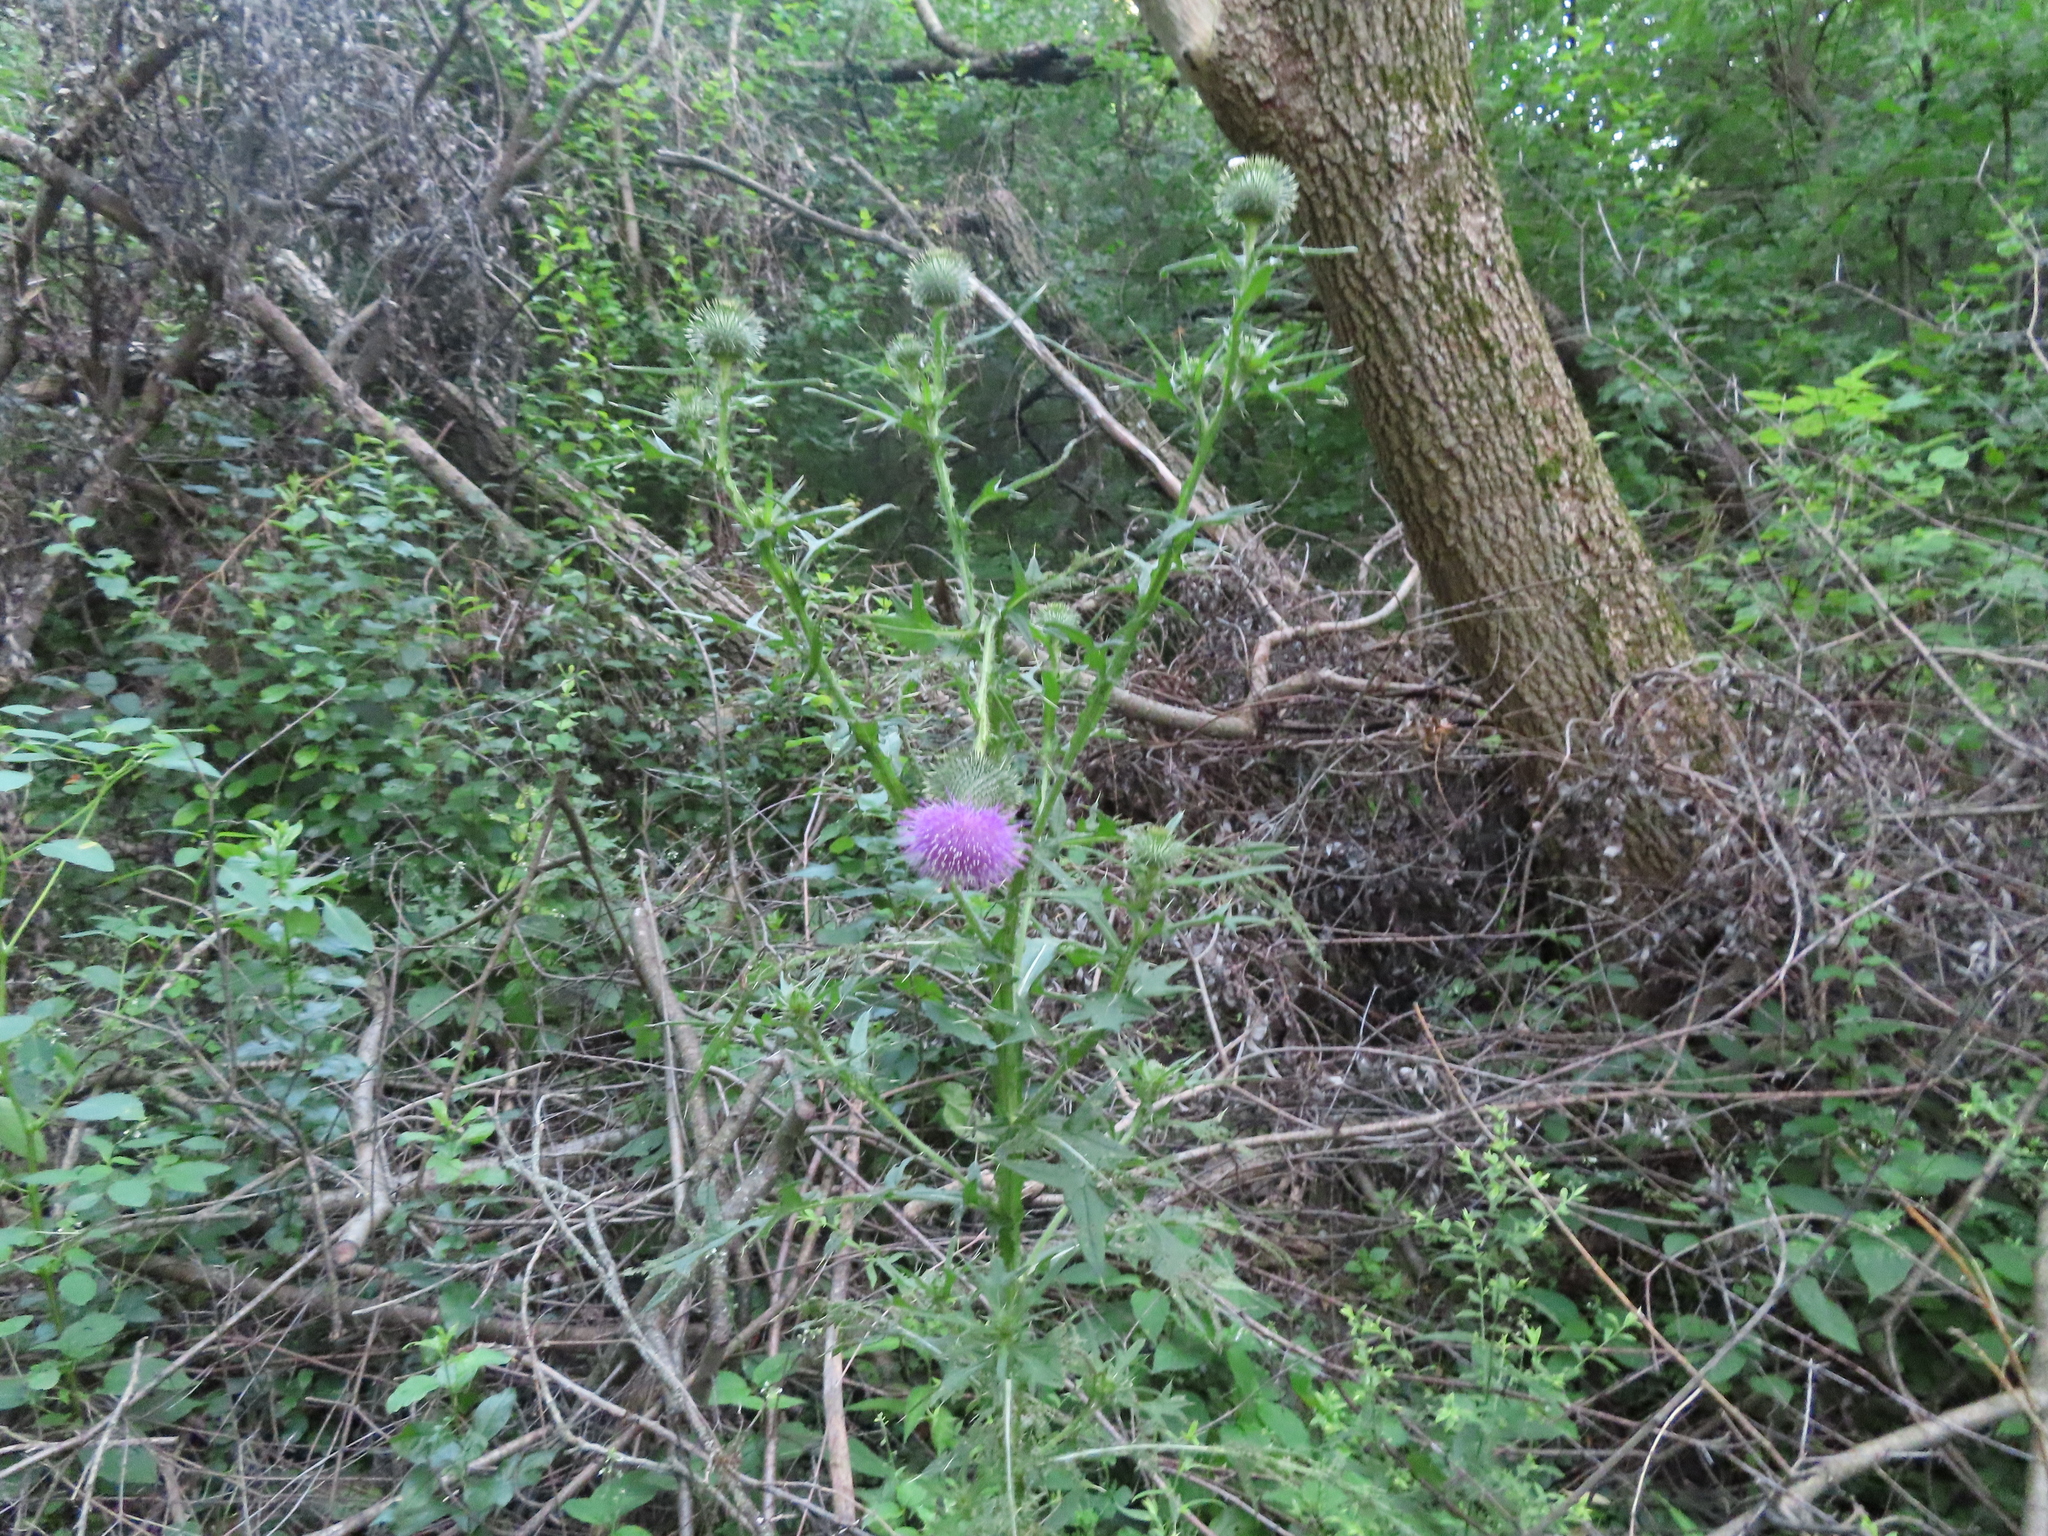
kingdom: Plantae
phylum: Tracheophyta
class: Magnoliopsida
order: Asterales
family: Asteraceae
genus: Cirsium
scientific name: Cirsium vulgare
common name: Bull thistle
